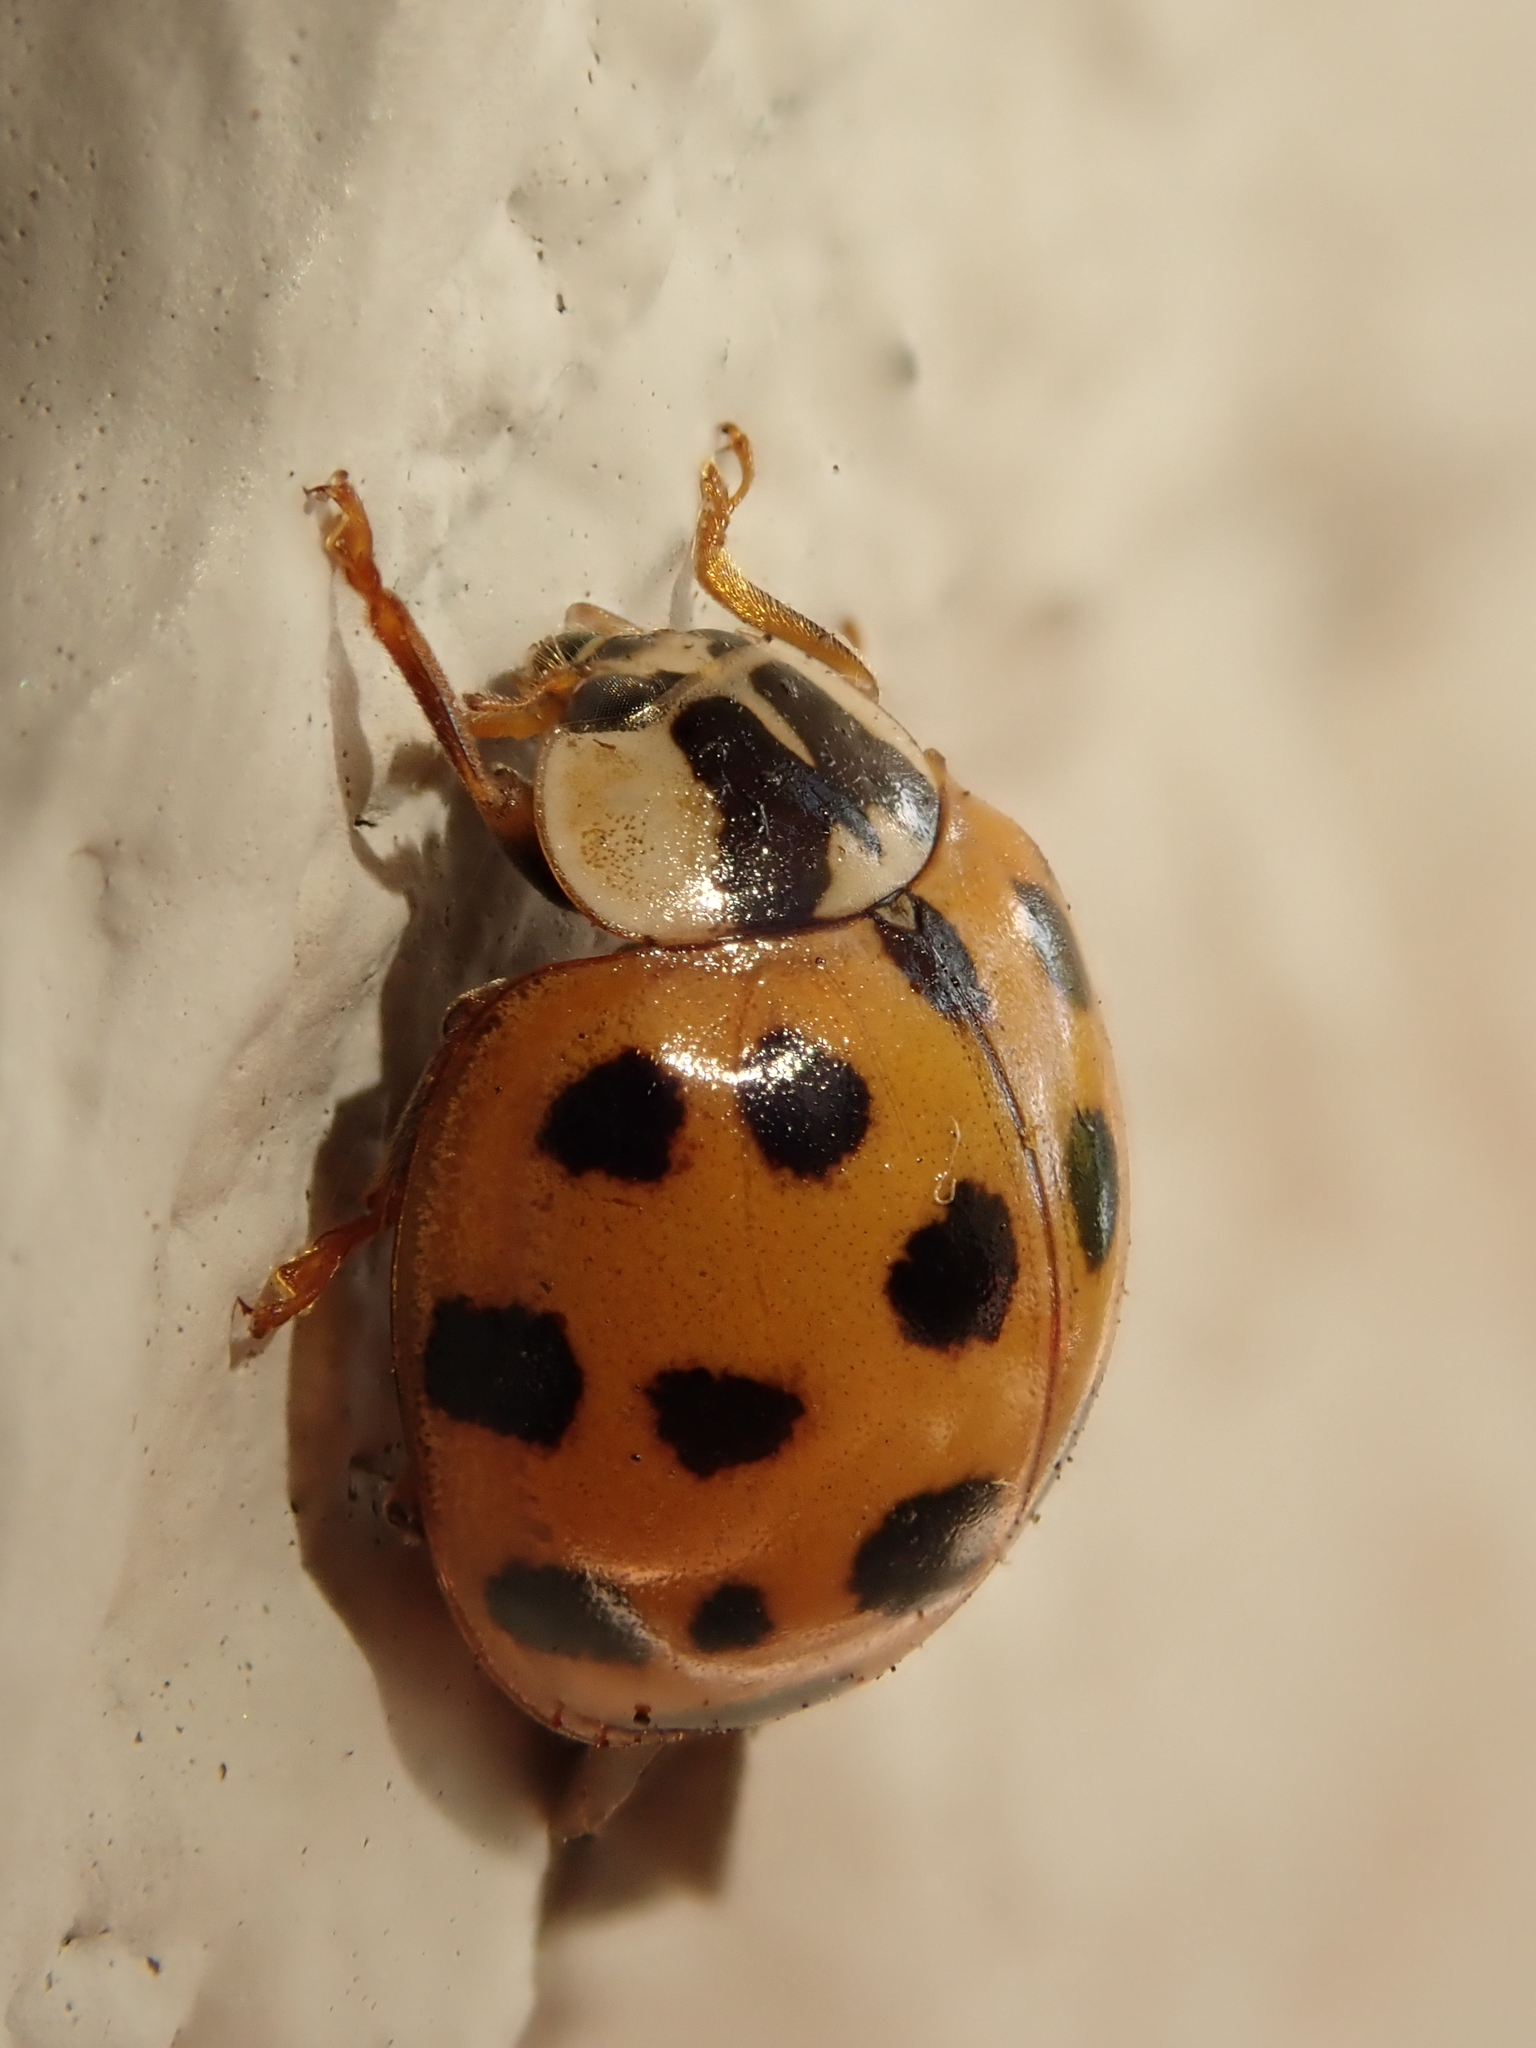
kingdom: Animalia
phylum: Arthropoda
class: Insecta
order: Coleoptera
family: Coccinellidae
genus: Harmonia
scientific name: Harmonia axyridis
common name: Harlequin ladybird
